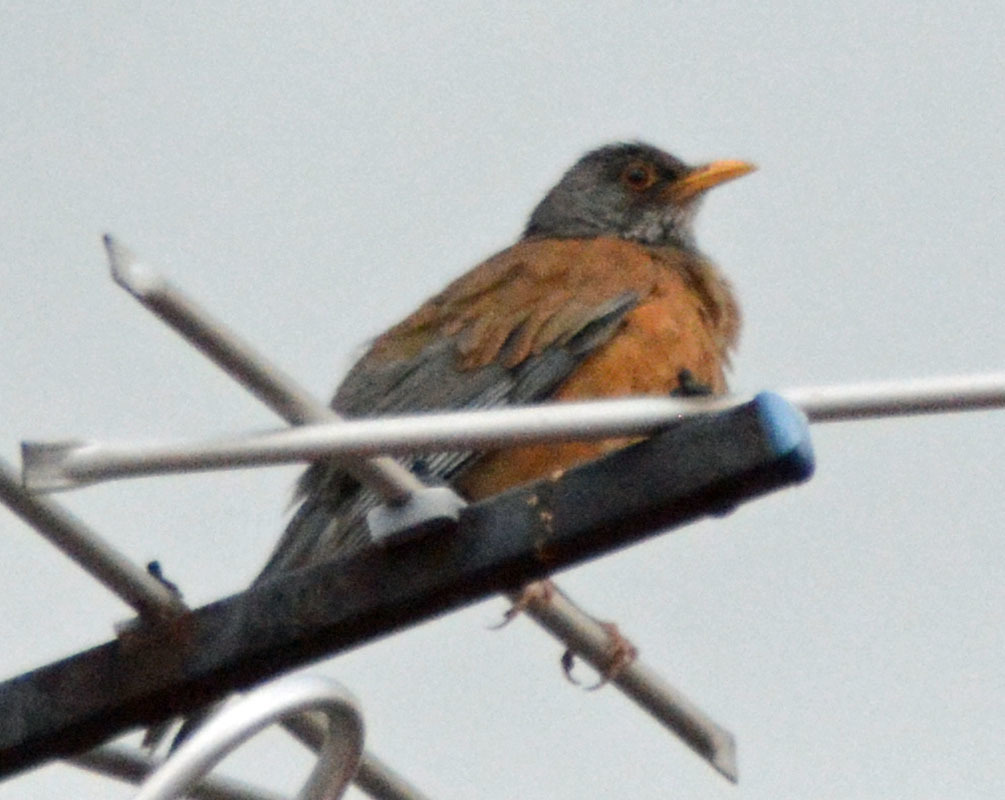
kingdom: Animalia
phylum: Chordata
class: Aves
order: Passeriformes
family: Turdidae
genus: Turdus
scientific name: Turdus rufopalliatus
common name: Rufous-backed robin
